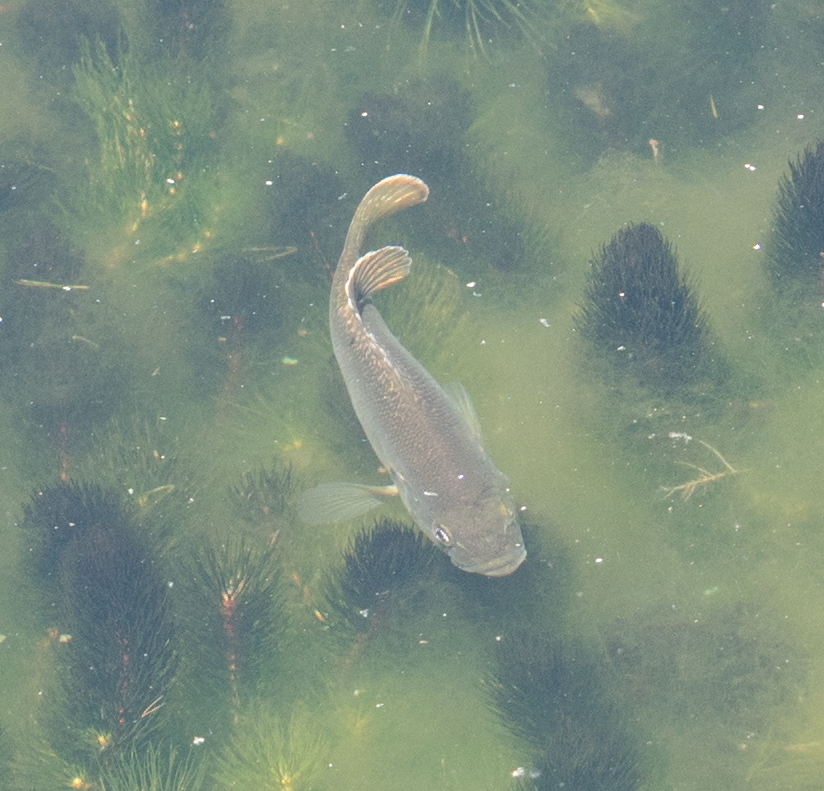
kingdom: Animalia
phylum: Chordata
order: Perciformes
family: Centrarchidae
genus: Lepomis
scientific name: Lepomis cyanellus
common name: Green sunfish
